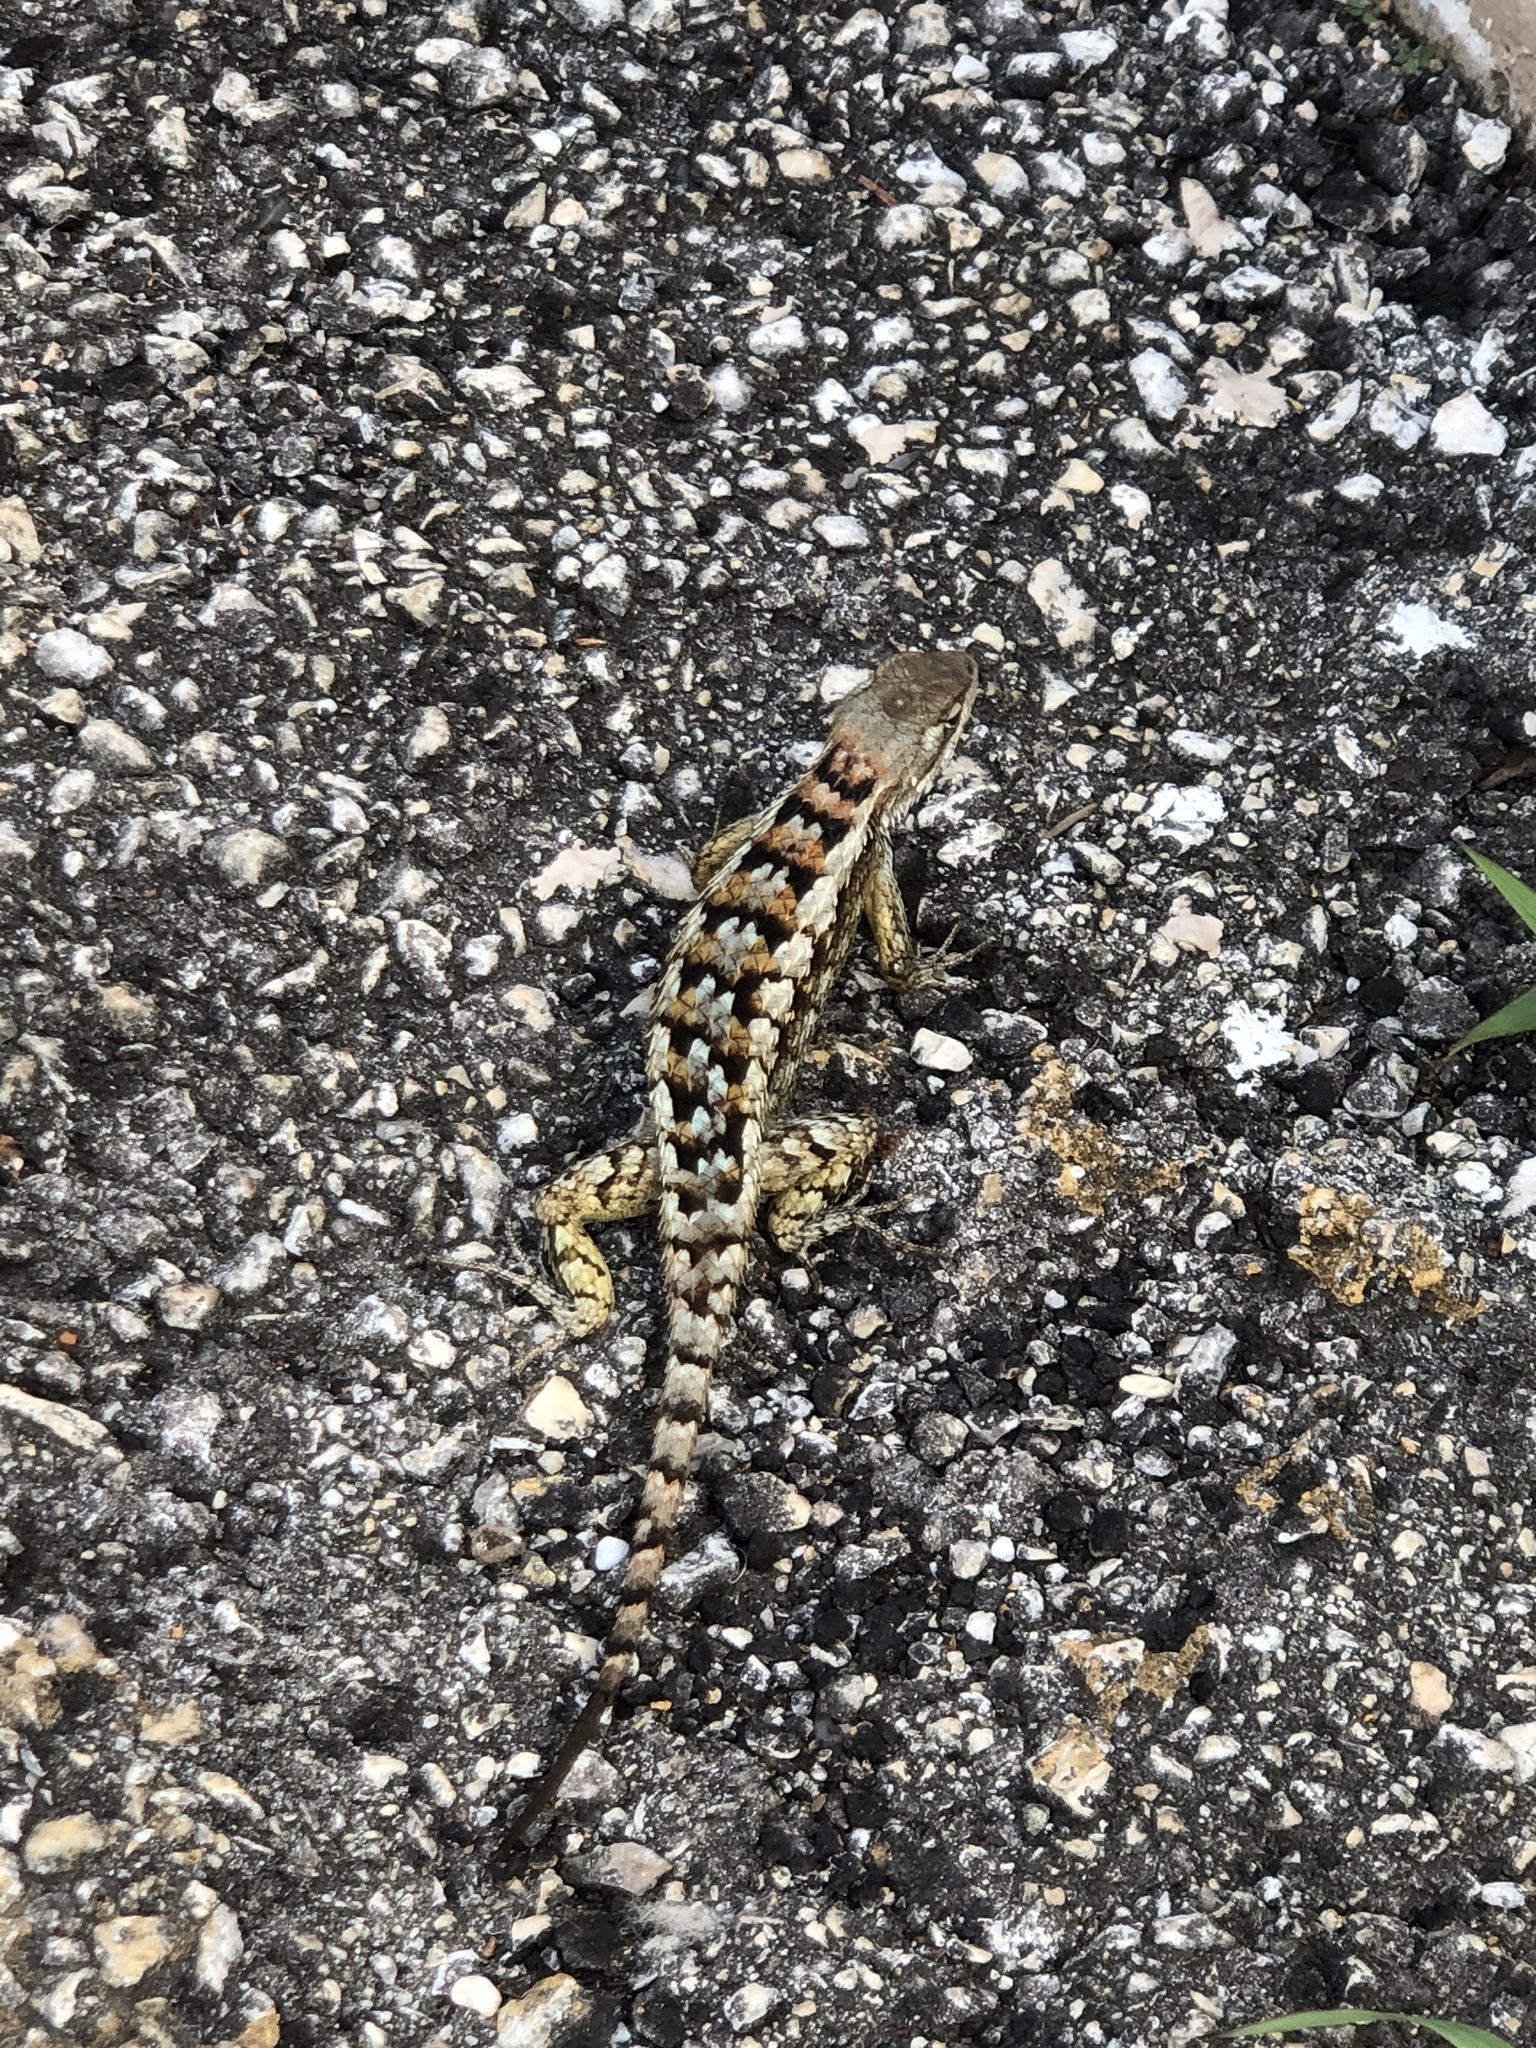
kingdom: Animalia
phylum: Chordata
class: Squamata
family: Phrynosomatidae
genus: Sceloporus
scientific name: Sceloporus olivaceus
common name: Texas spiny lizard
